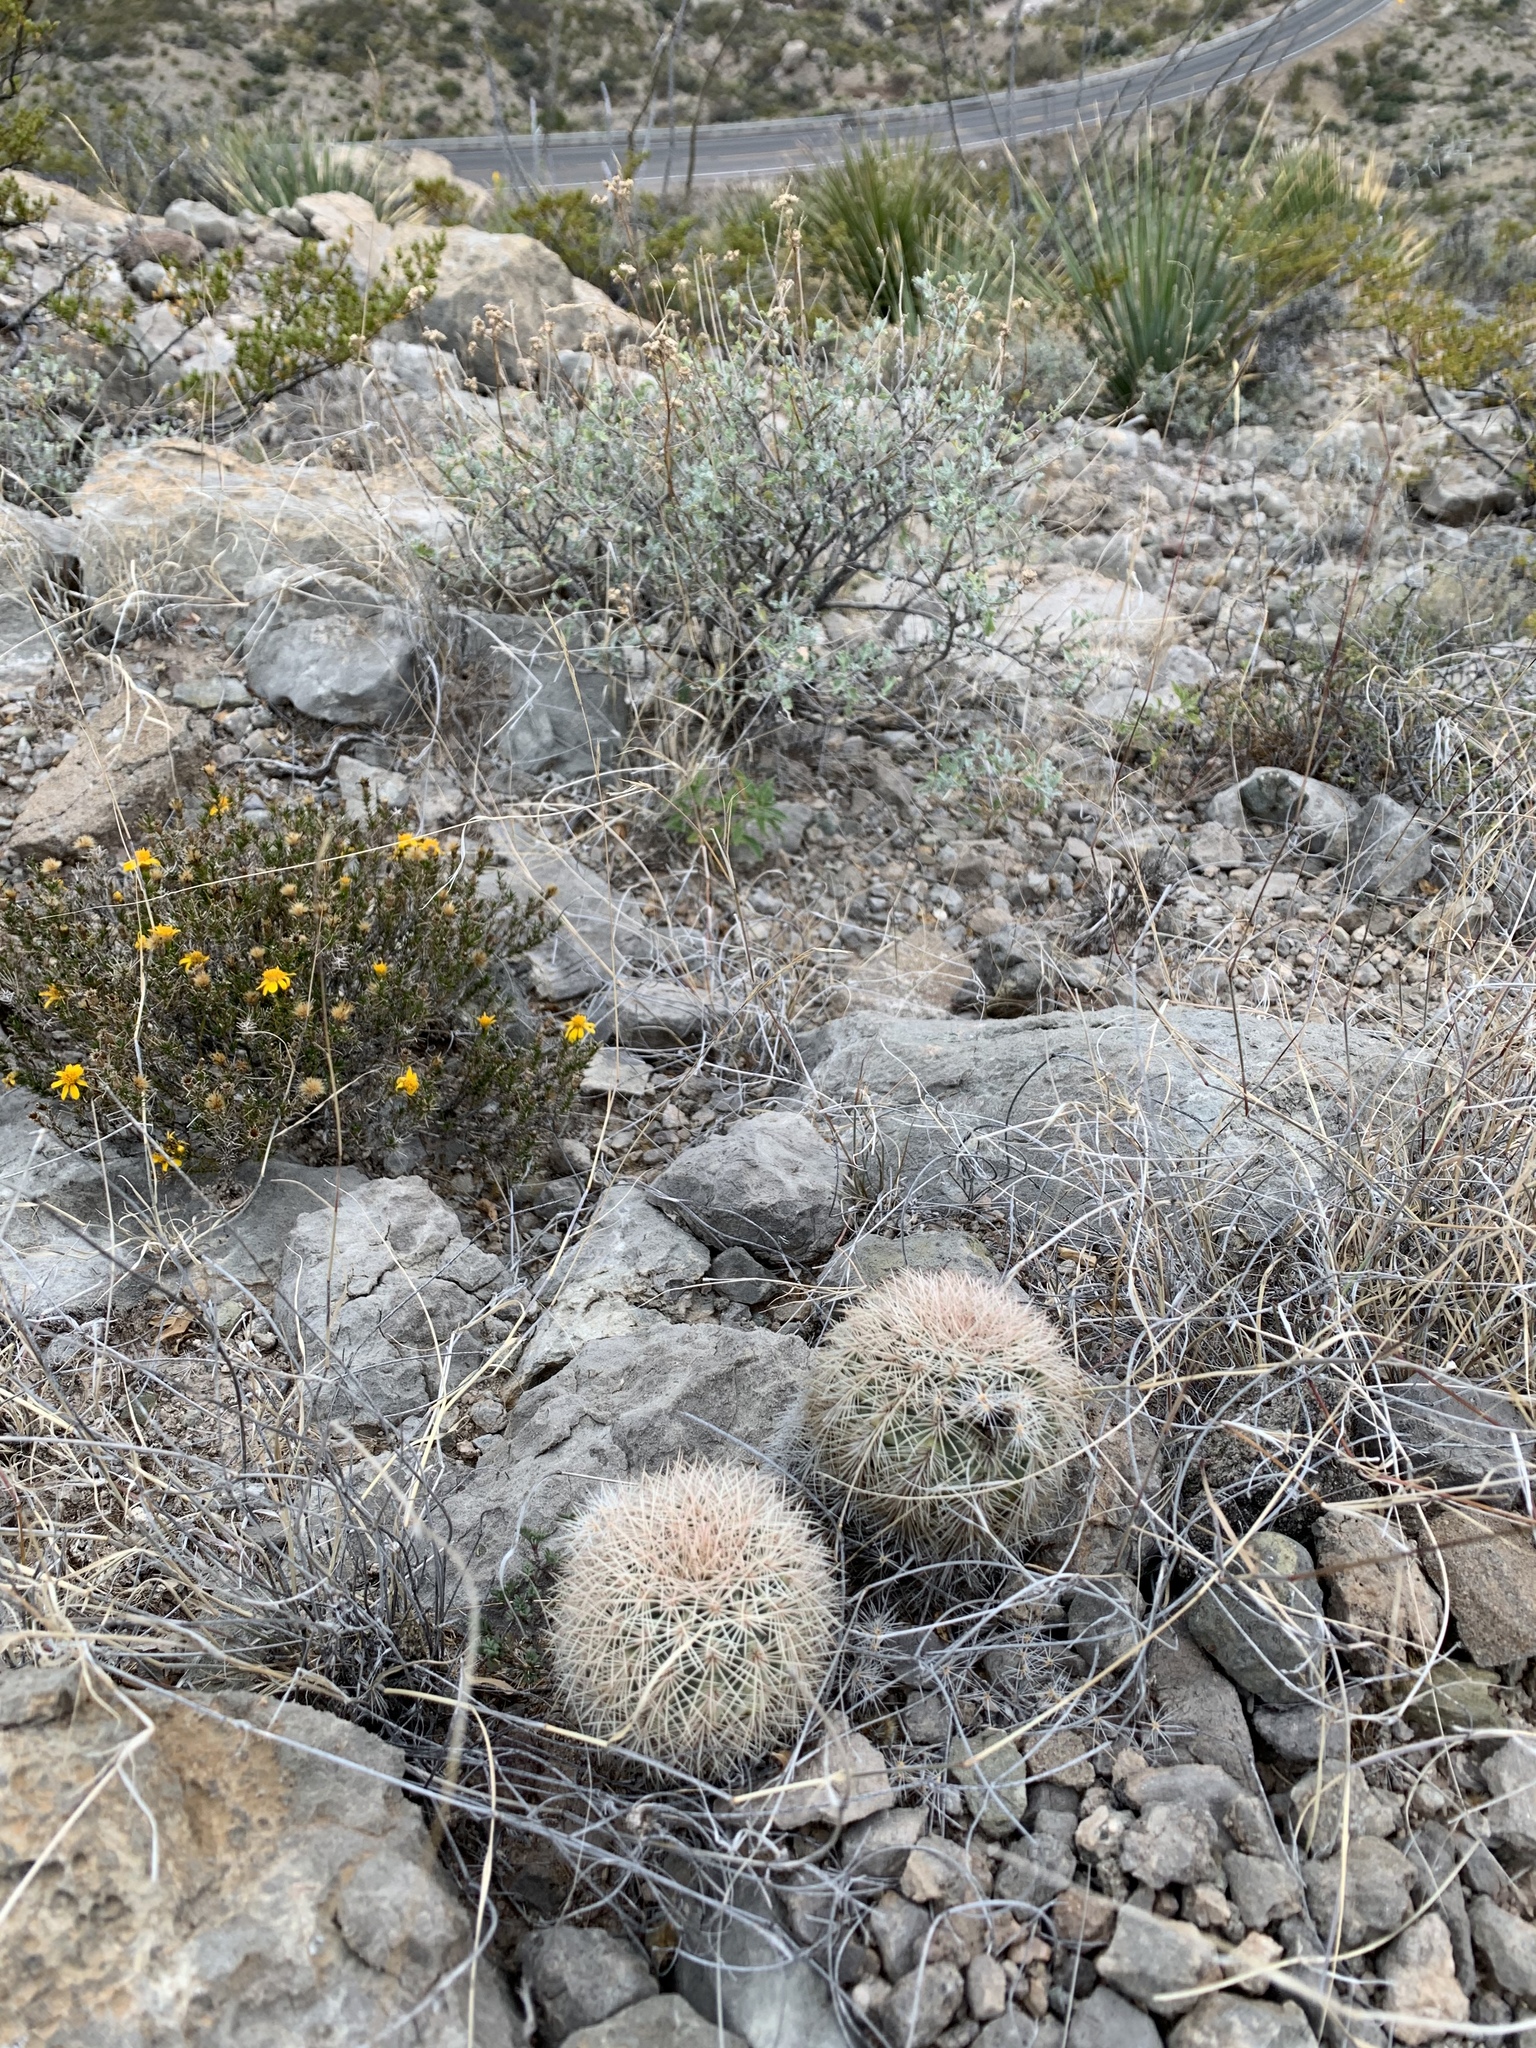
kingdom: Plantae
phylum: Tracheophyta
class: Magnoliopsida
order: Caryophyllales
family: Cactaceae
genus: Echinocereus
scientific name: Echinocereus dasyacanthus
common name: Spiny hedgehog cactus
